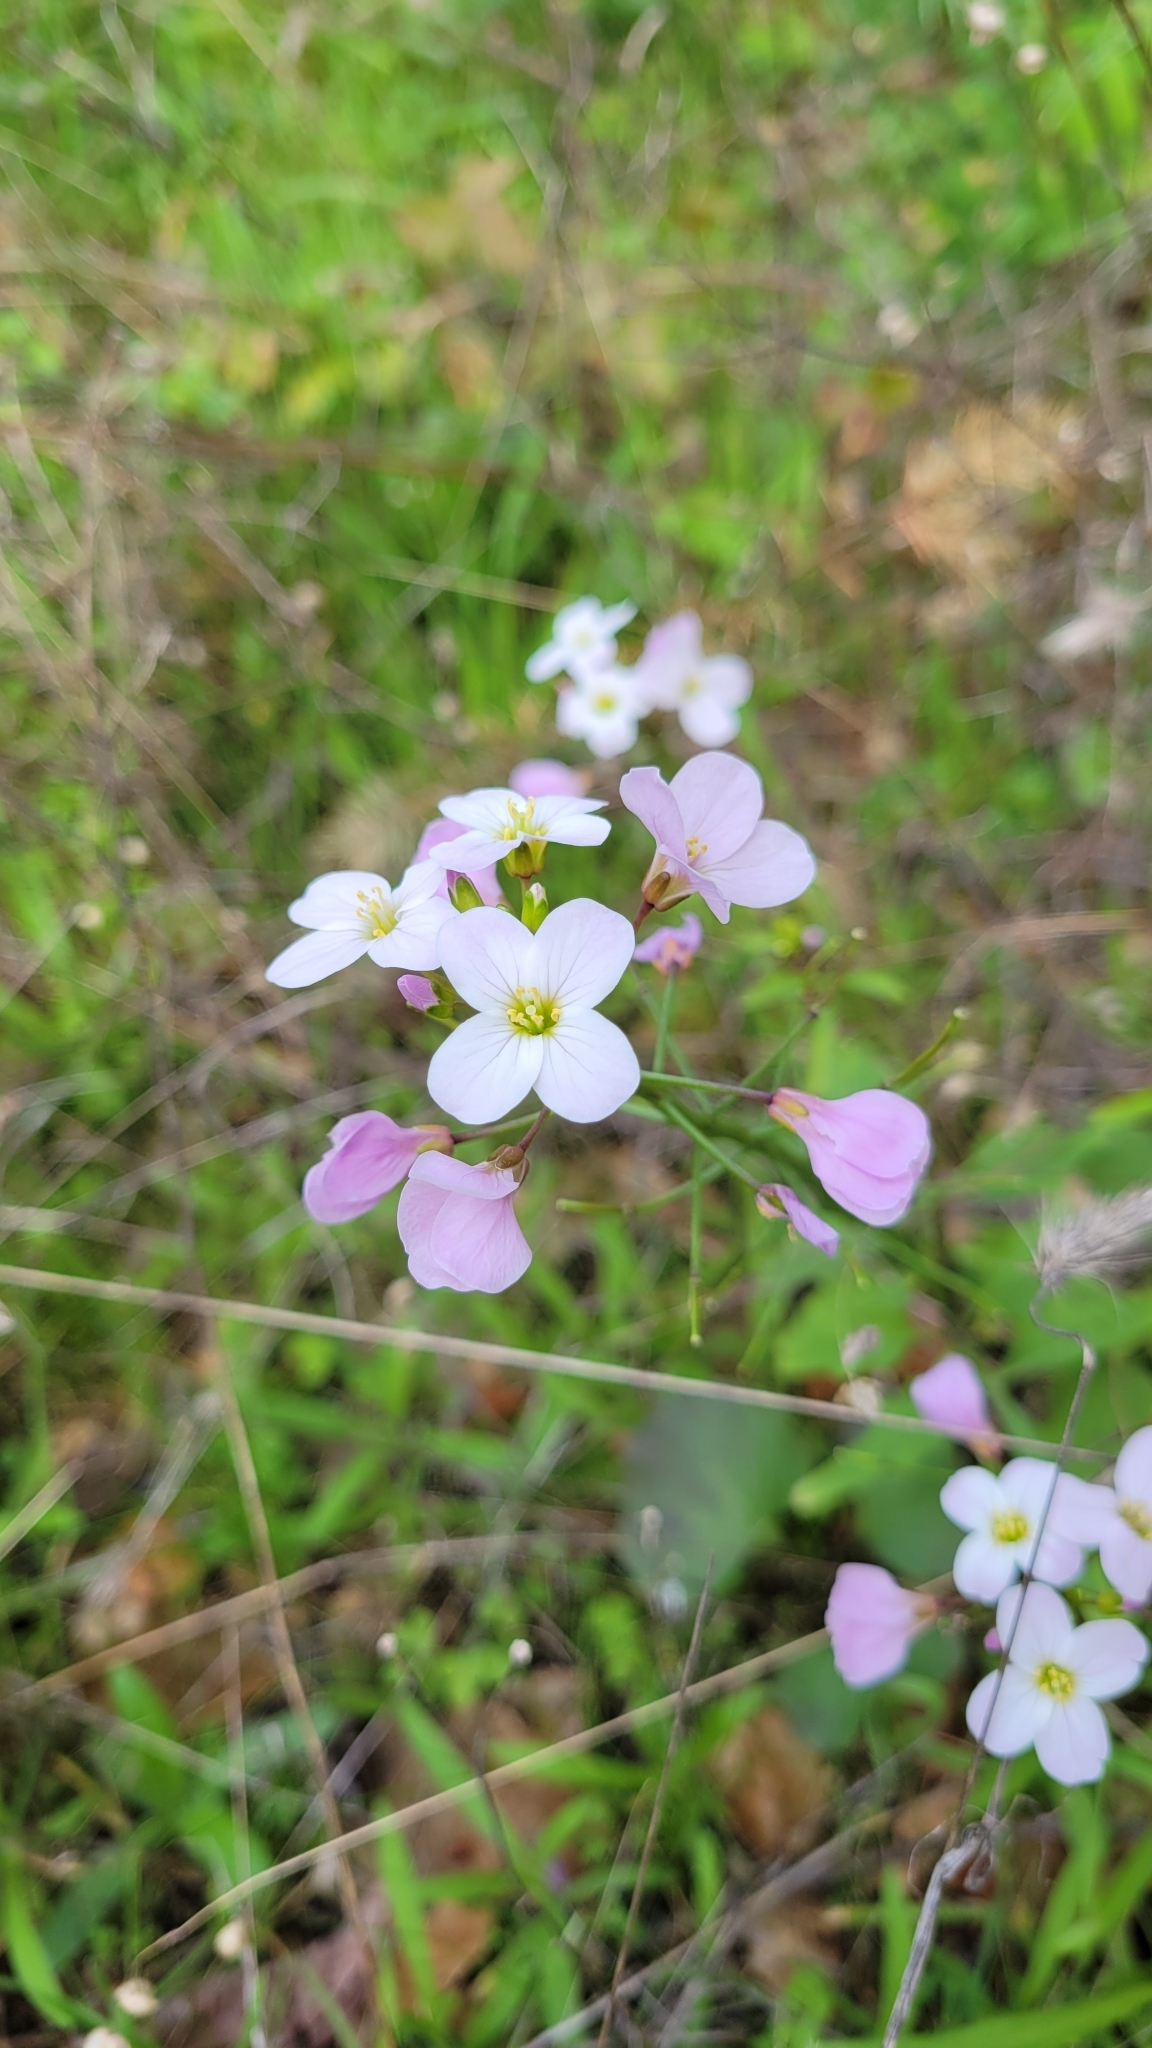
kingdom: Plantae
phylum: Tracheophyta
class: Magnoliopsida
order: Brassicales
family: Brassicaceae
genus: Cardamine
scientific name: Cardamine californica
